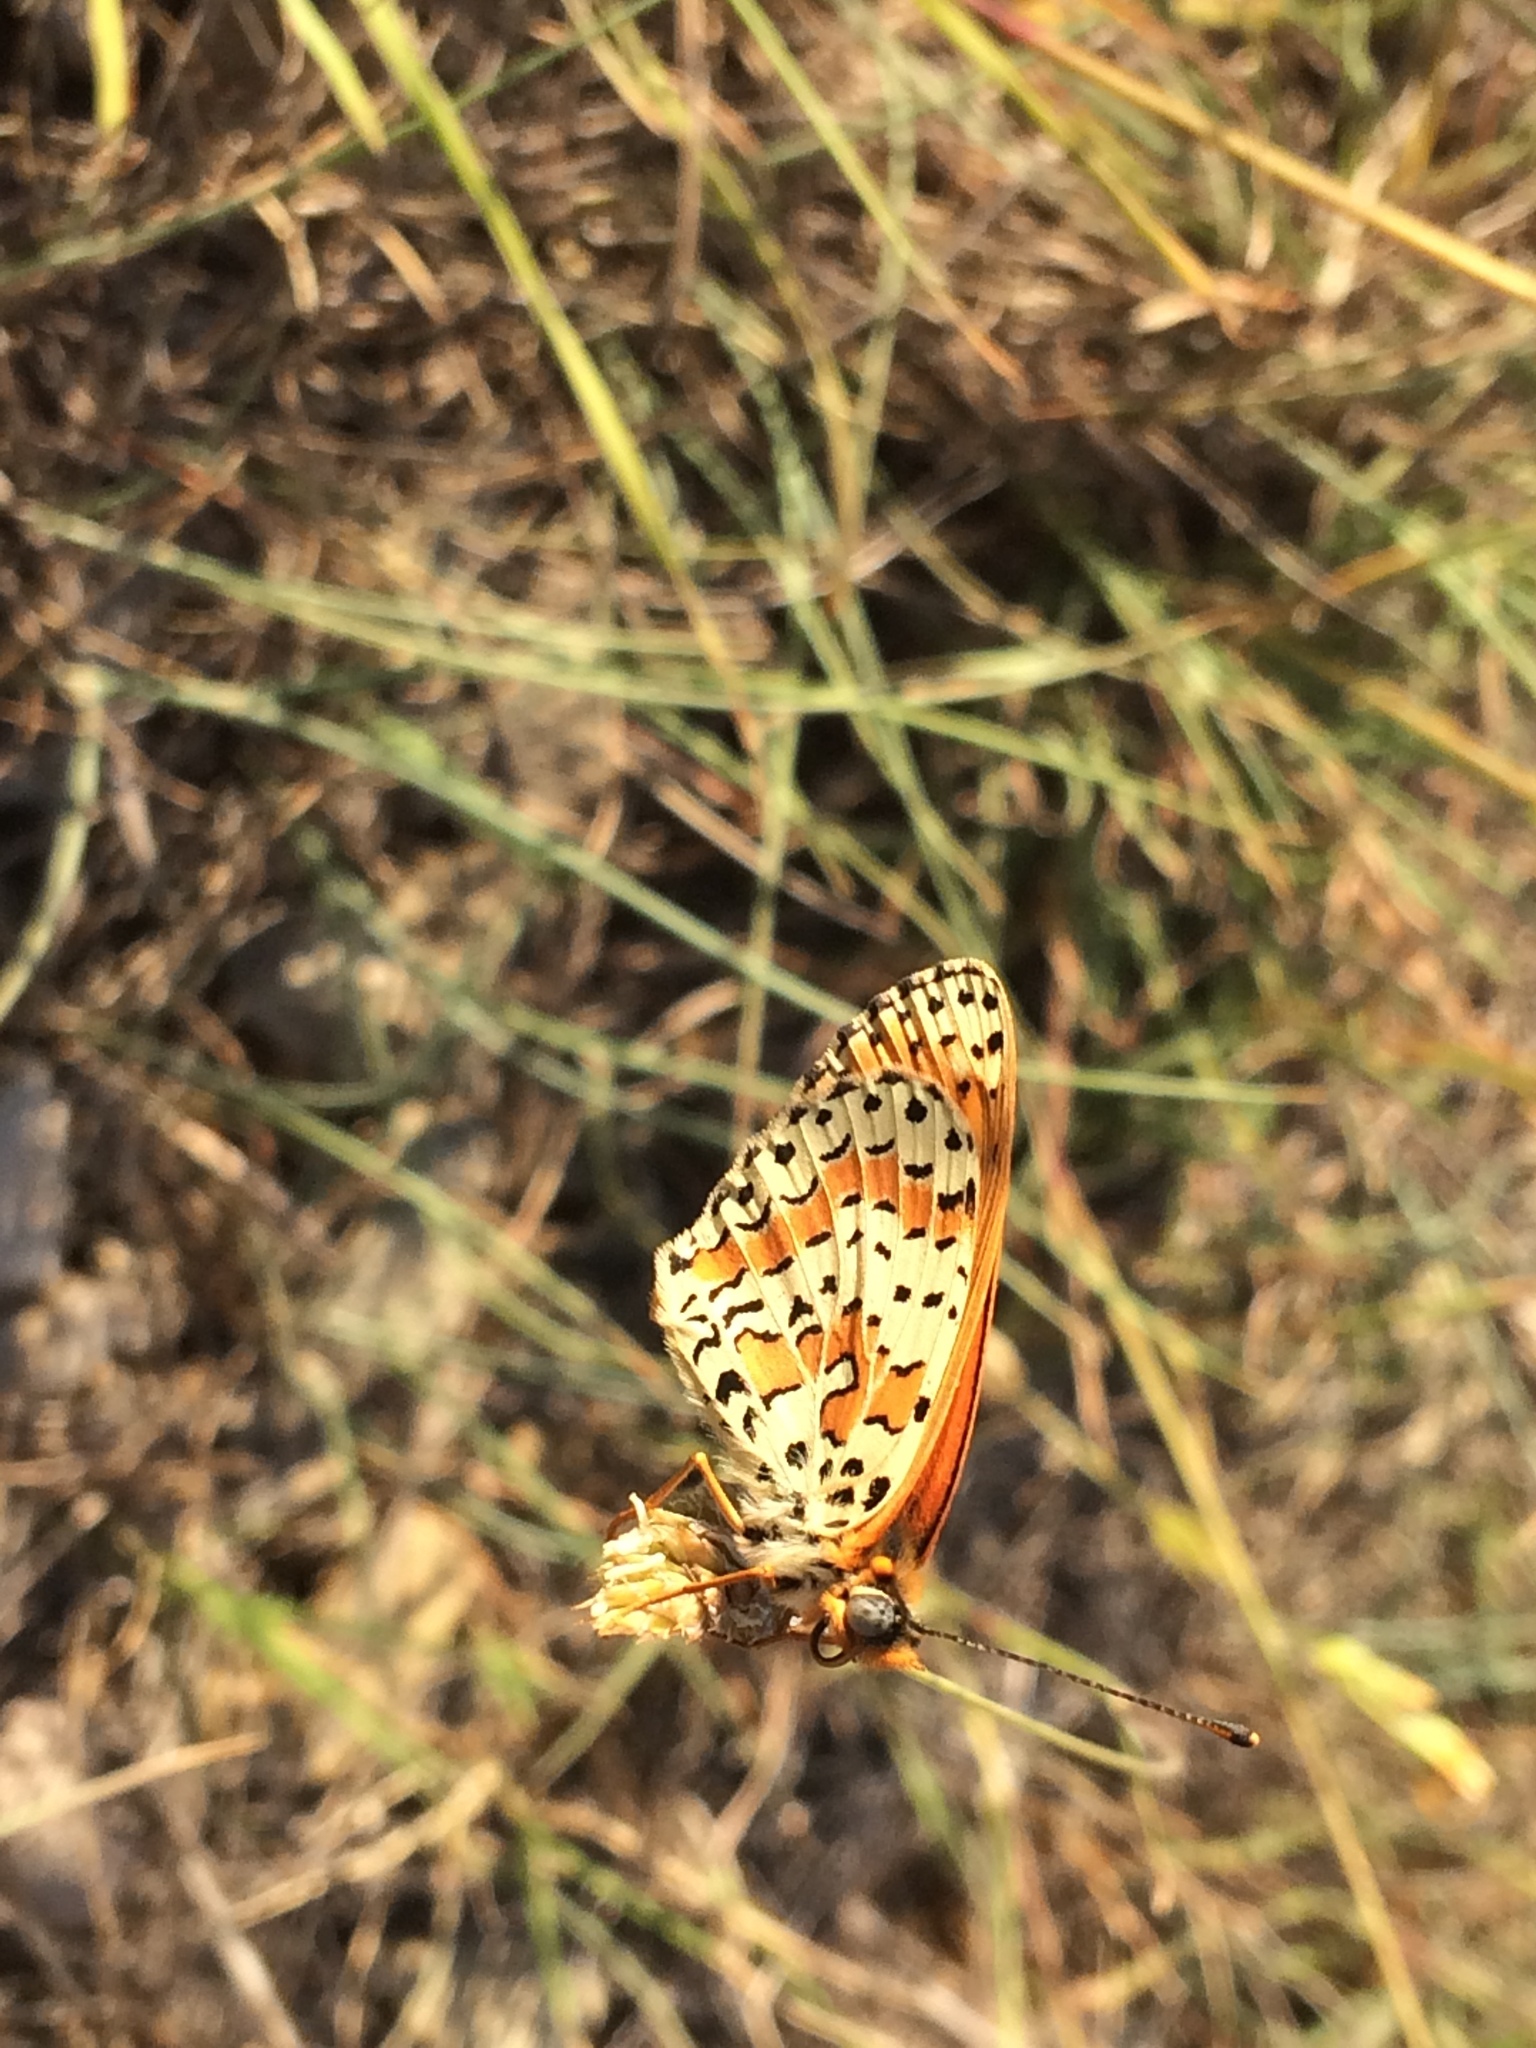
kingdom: Animalia
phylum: Arthropoda
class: Insecta
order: Lepidoptera
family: Nymphalidae
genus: Melitaea
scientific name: Melitaea didyma
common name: Spotted fritillary
